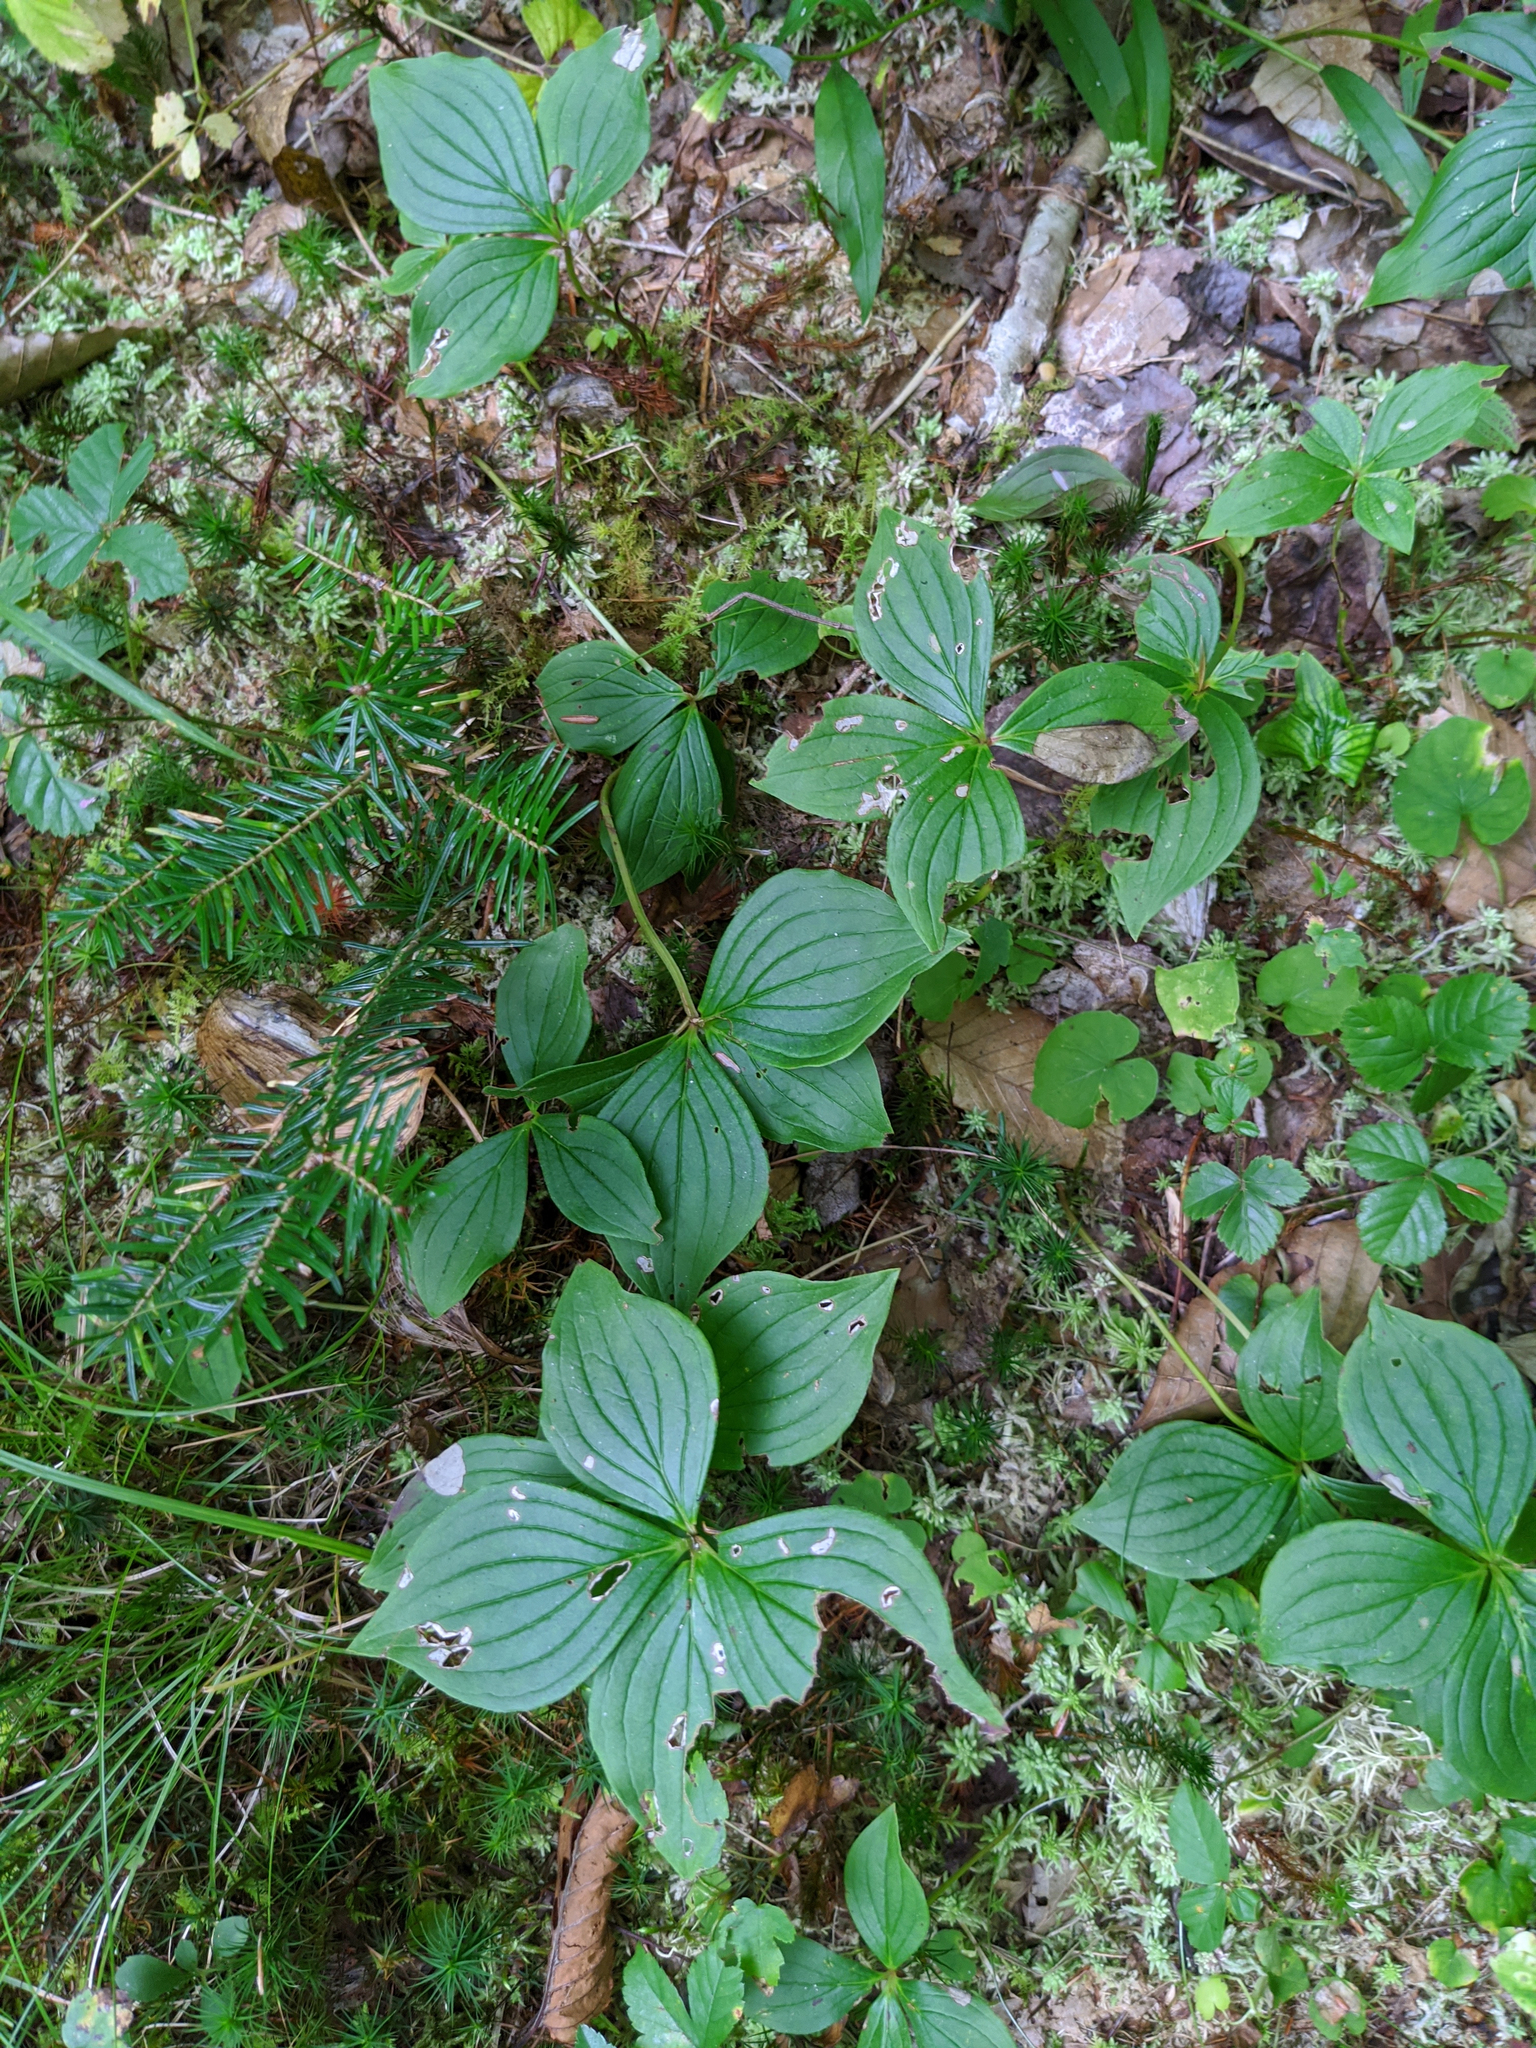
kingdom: Plantae
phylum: Tracheophyta
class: Magnoliopsida
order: Cornales
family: Cornaceae
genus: Cornus
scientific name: Cornus canadensis
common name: Creeping dogwood
